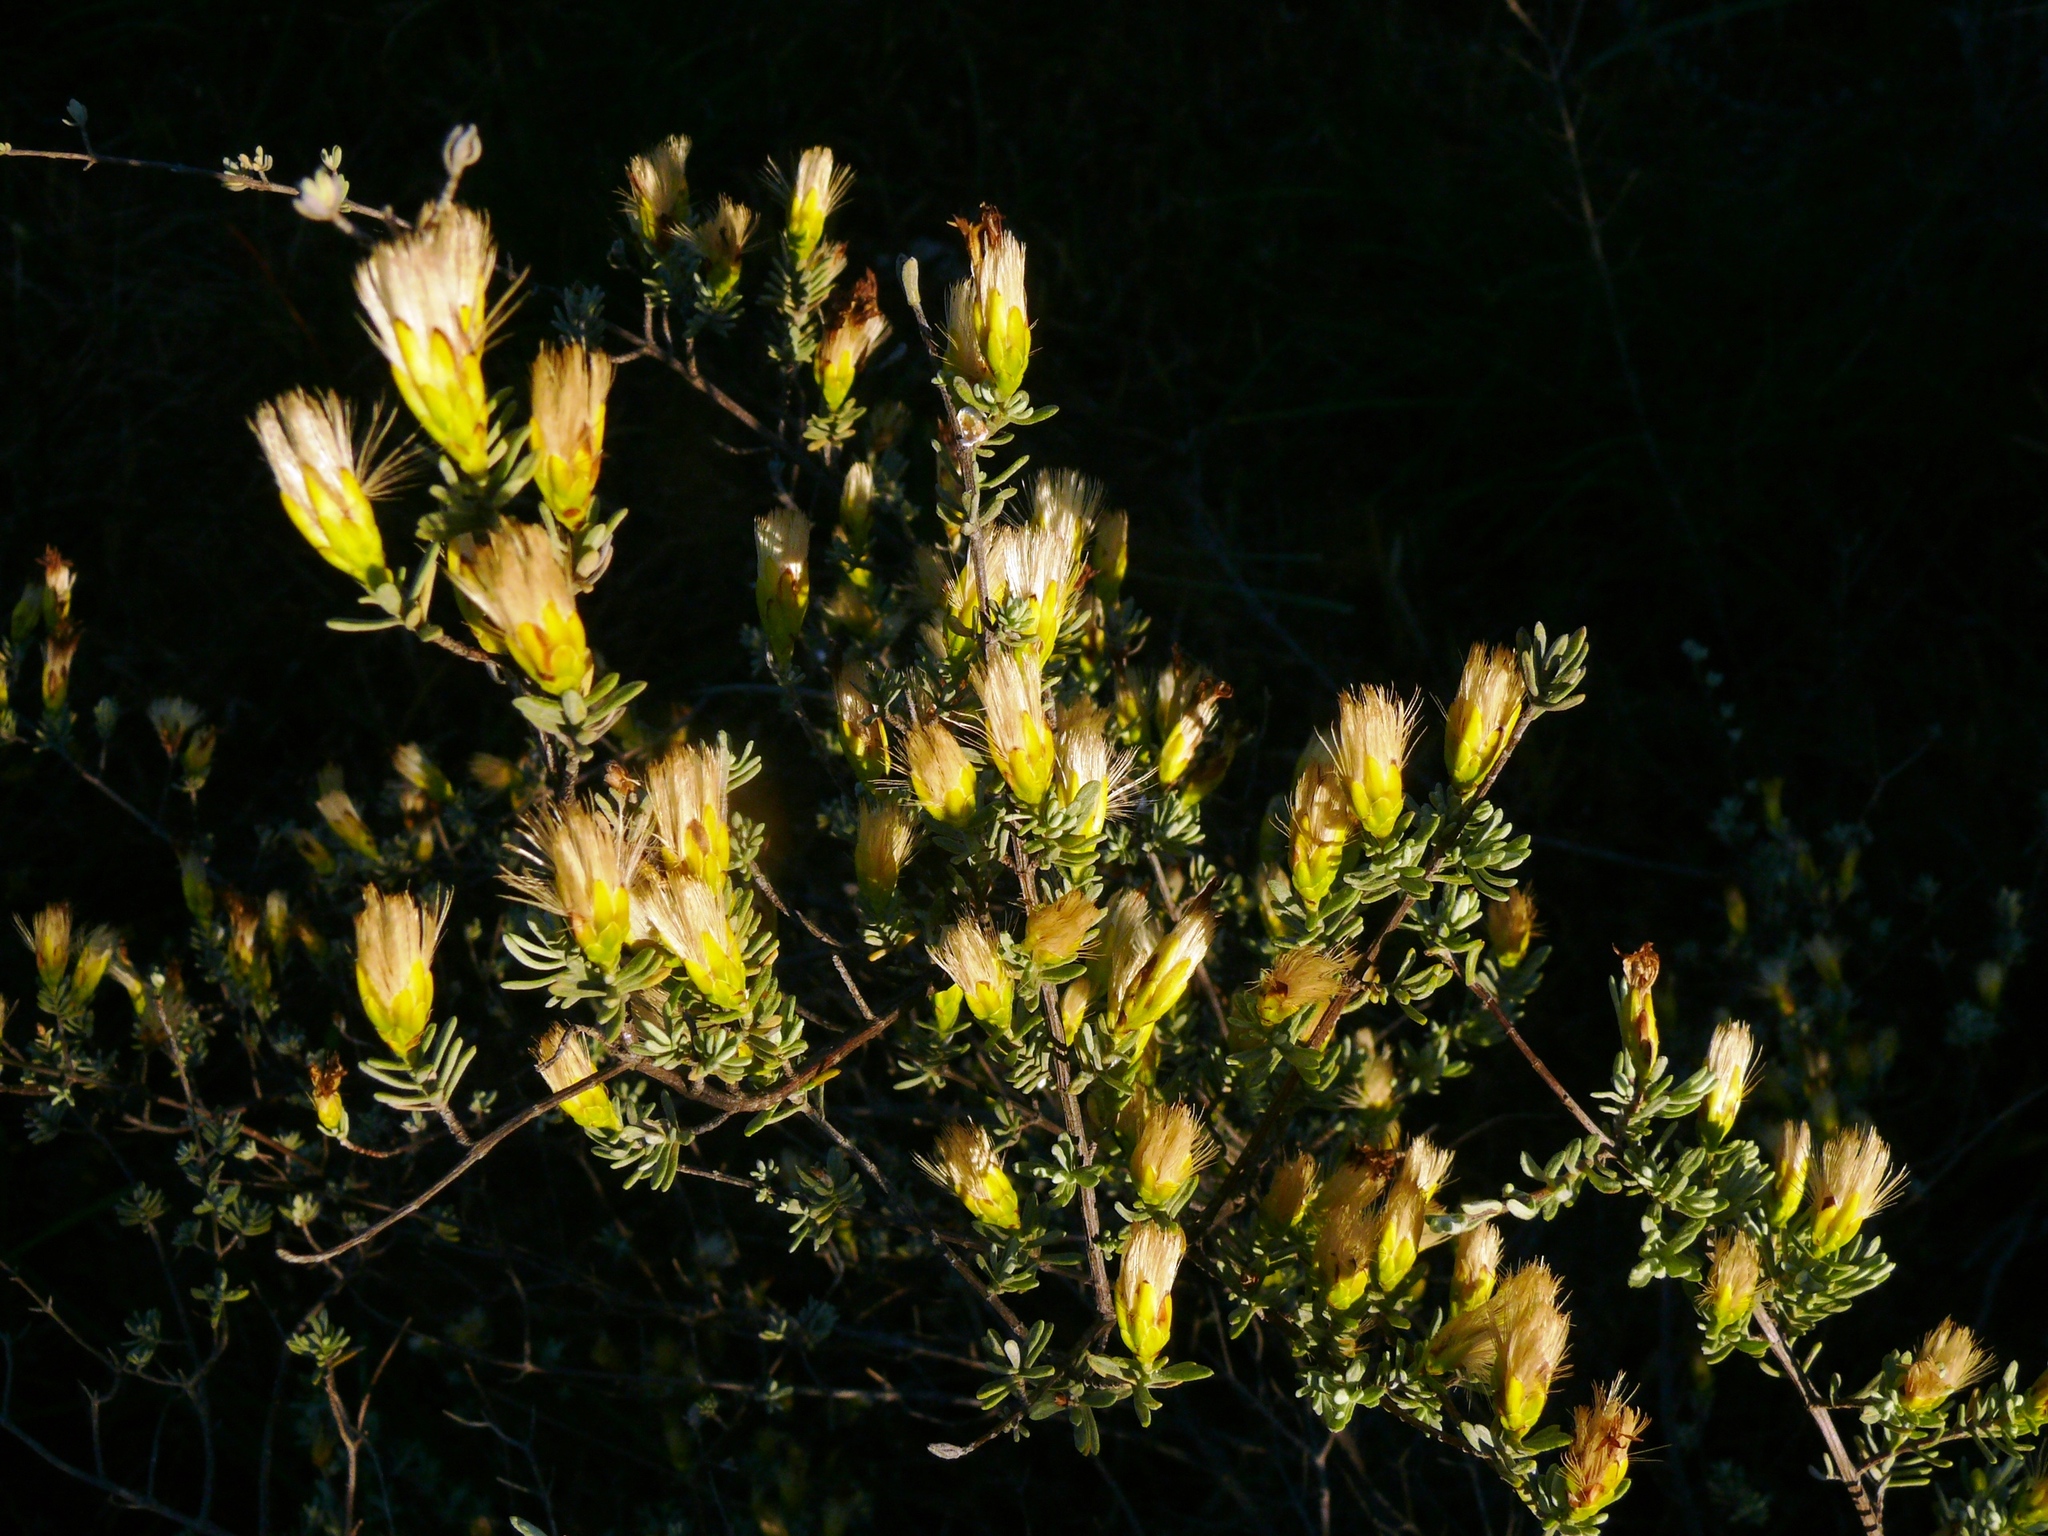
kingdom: Plantae
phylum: Tracheophyta
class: Magnoliopsida
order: Asterales
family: Asteraceae
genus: Pteronia
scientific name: Pteronia incana
